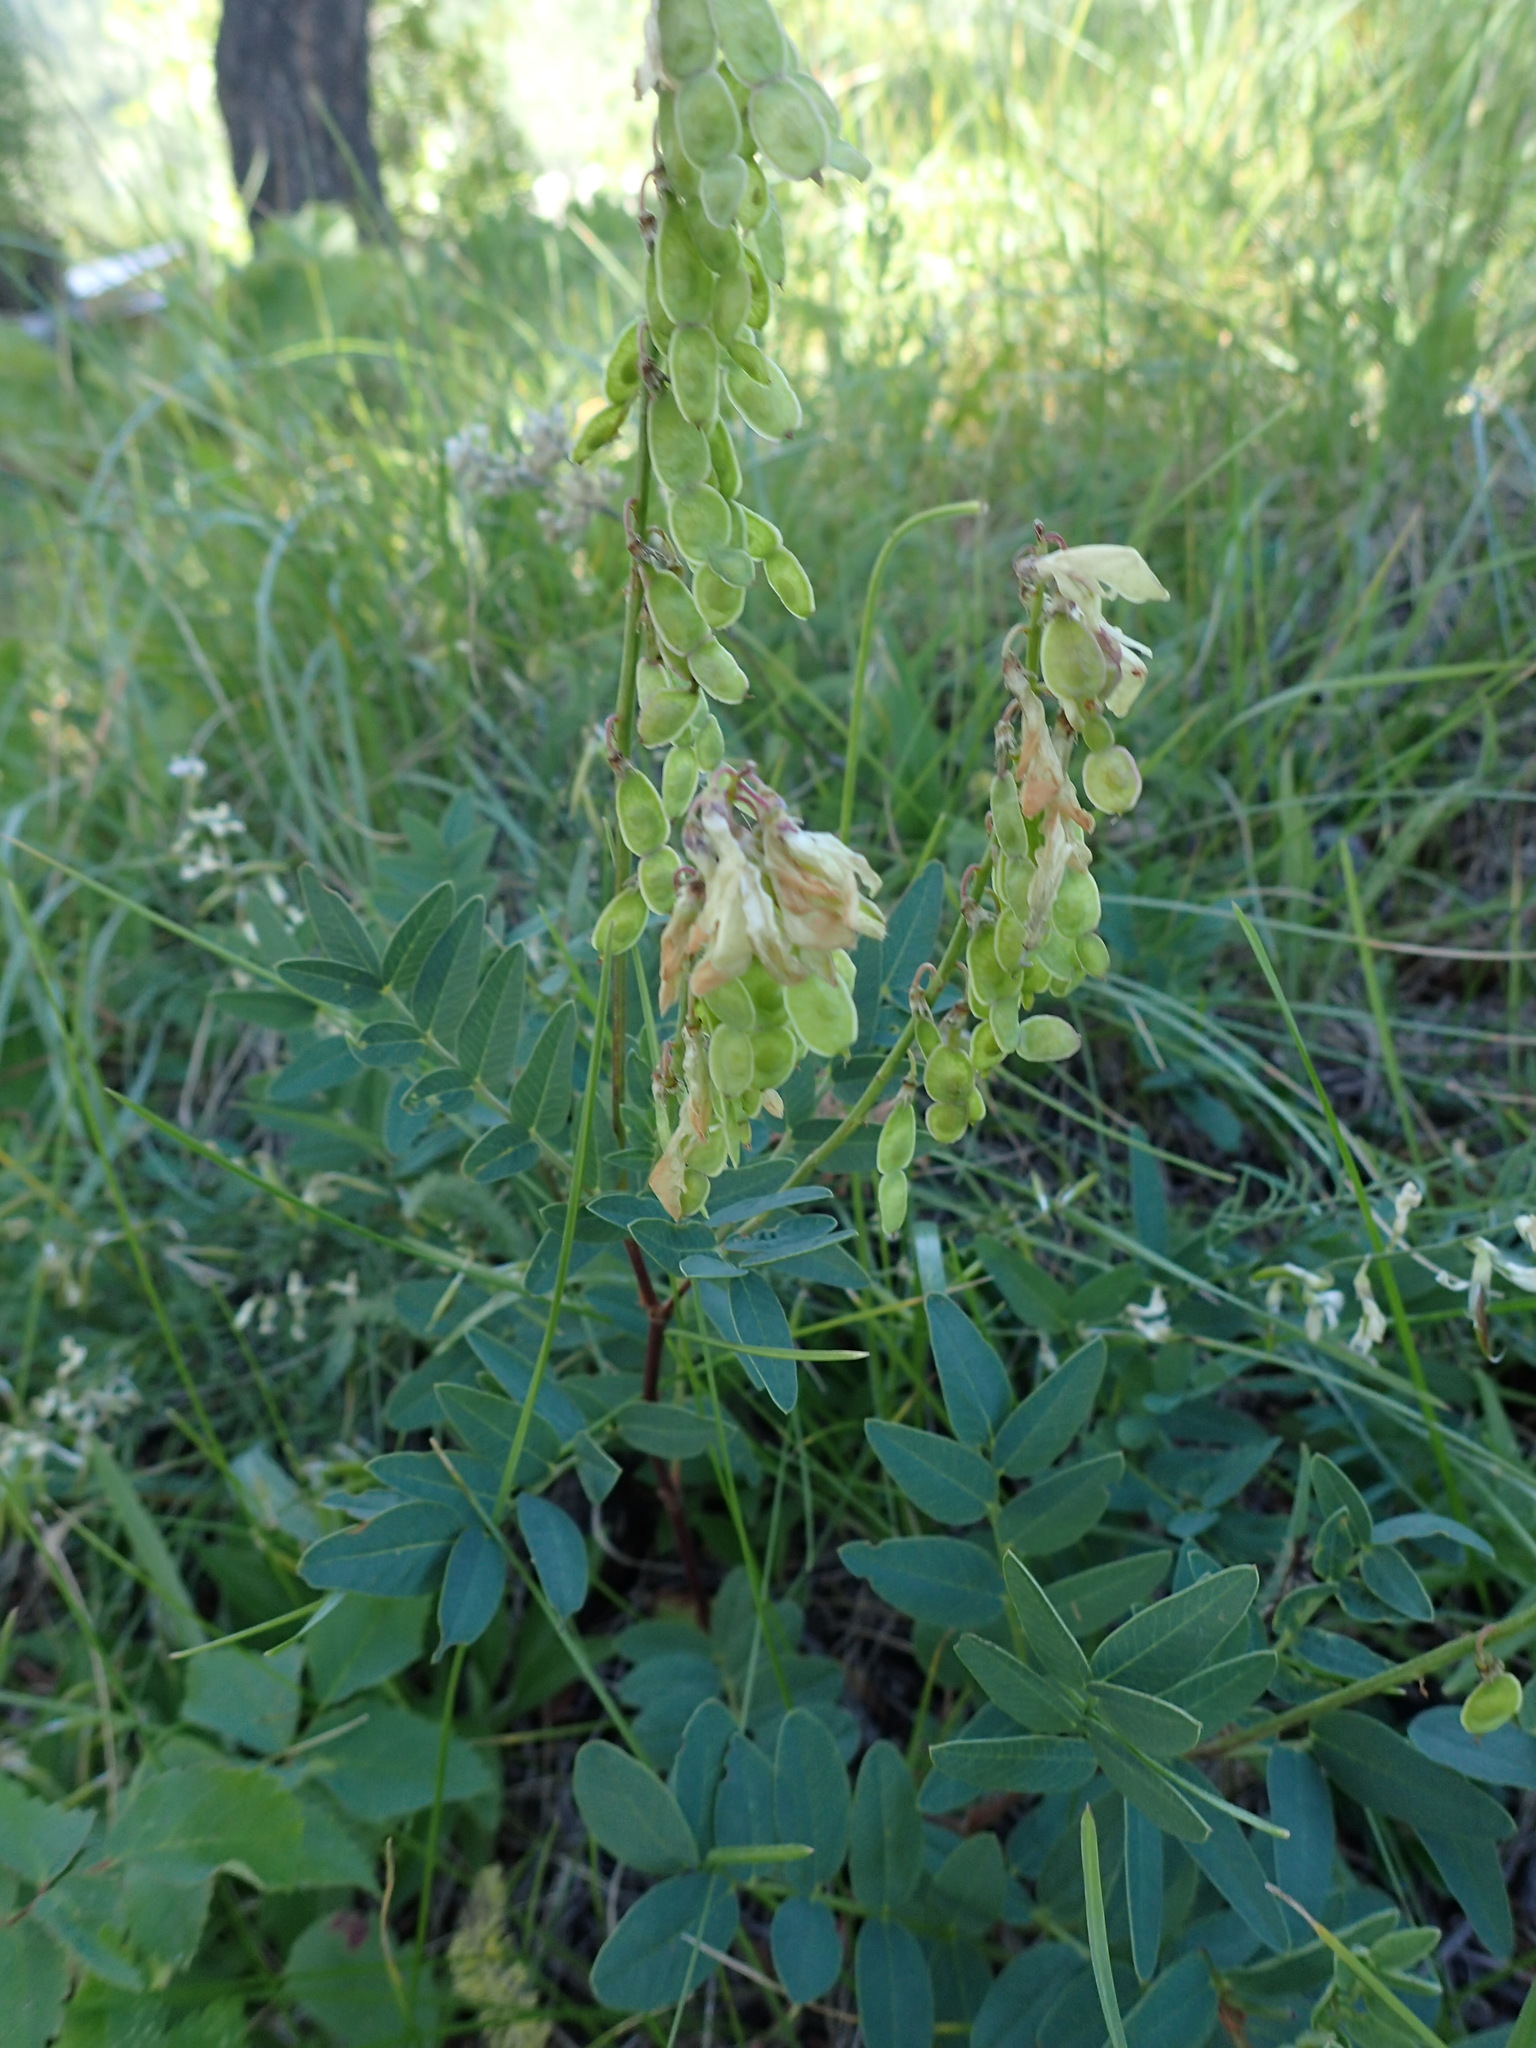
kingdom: Plantae
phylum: Tracheophyta
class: Magnoliopsida
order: Fabales
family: Fabaceae
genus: Hedysarum
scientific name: Hedysarum sulphurescens
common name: Sulphur hedysarum
